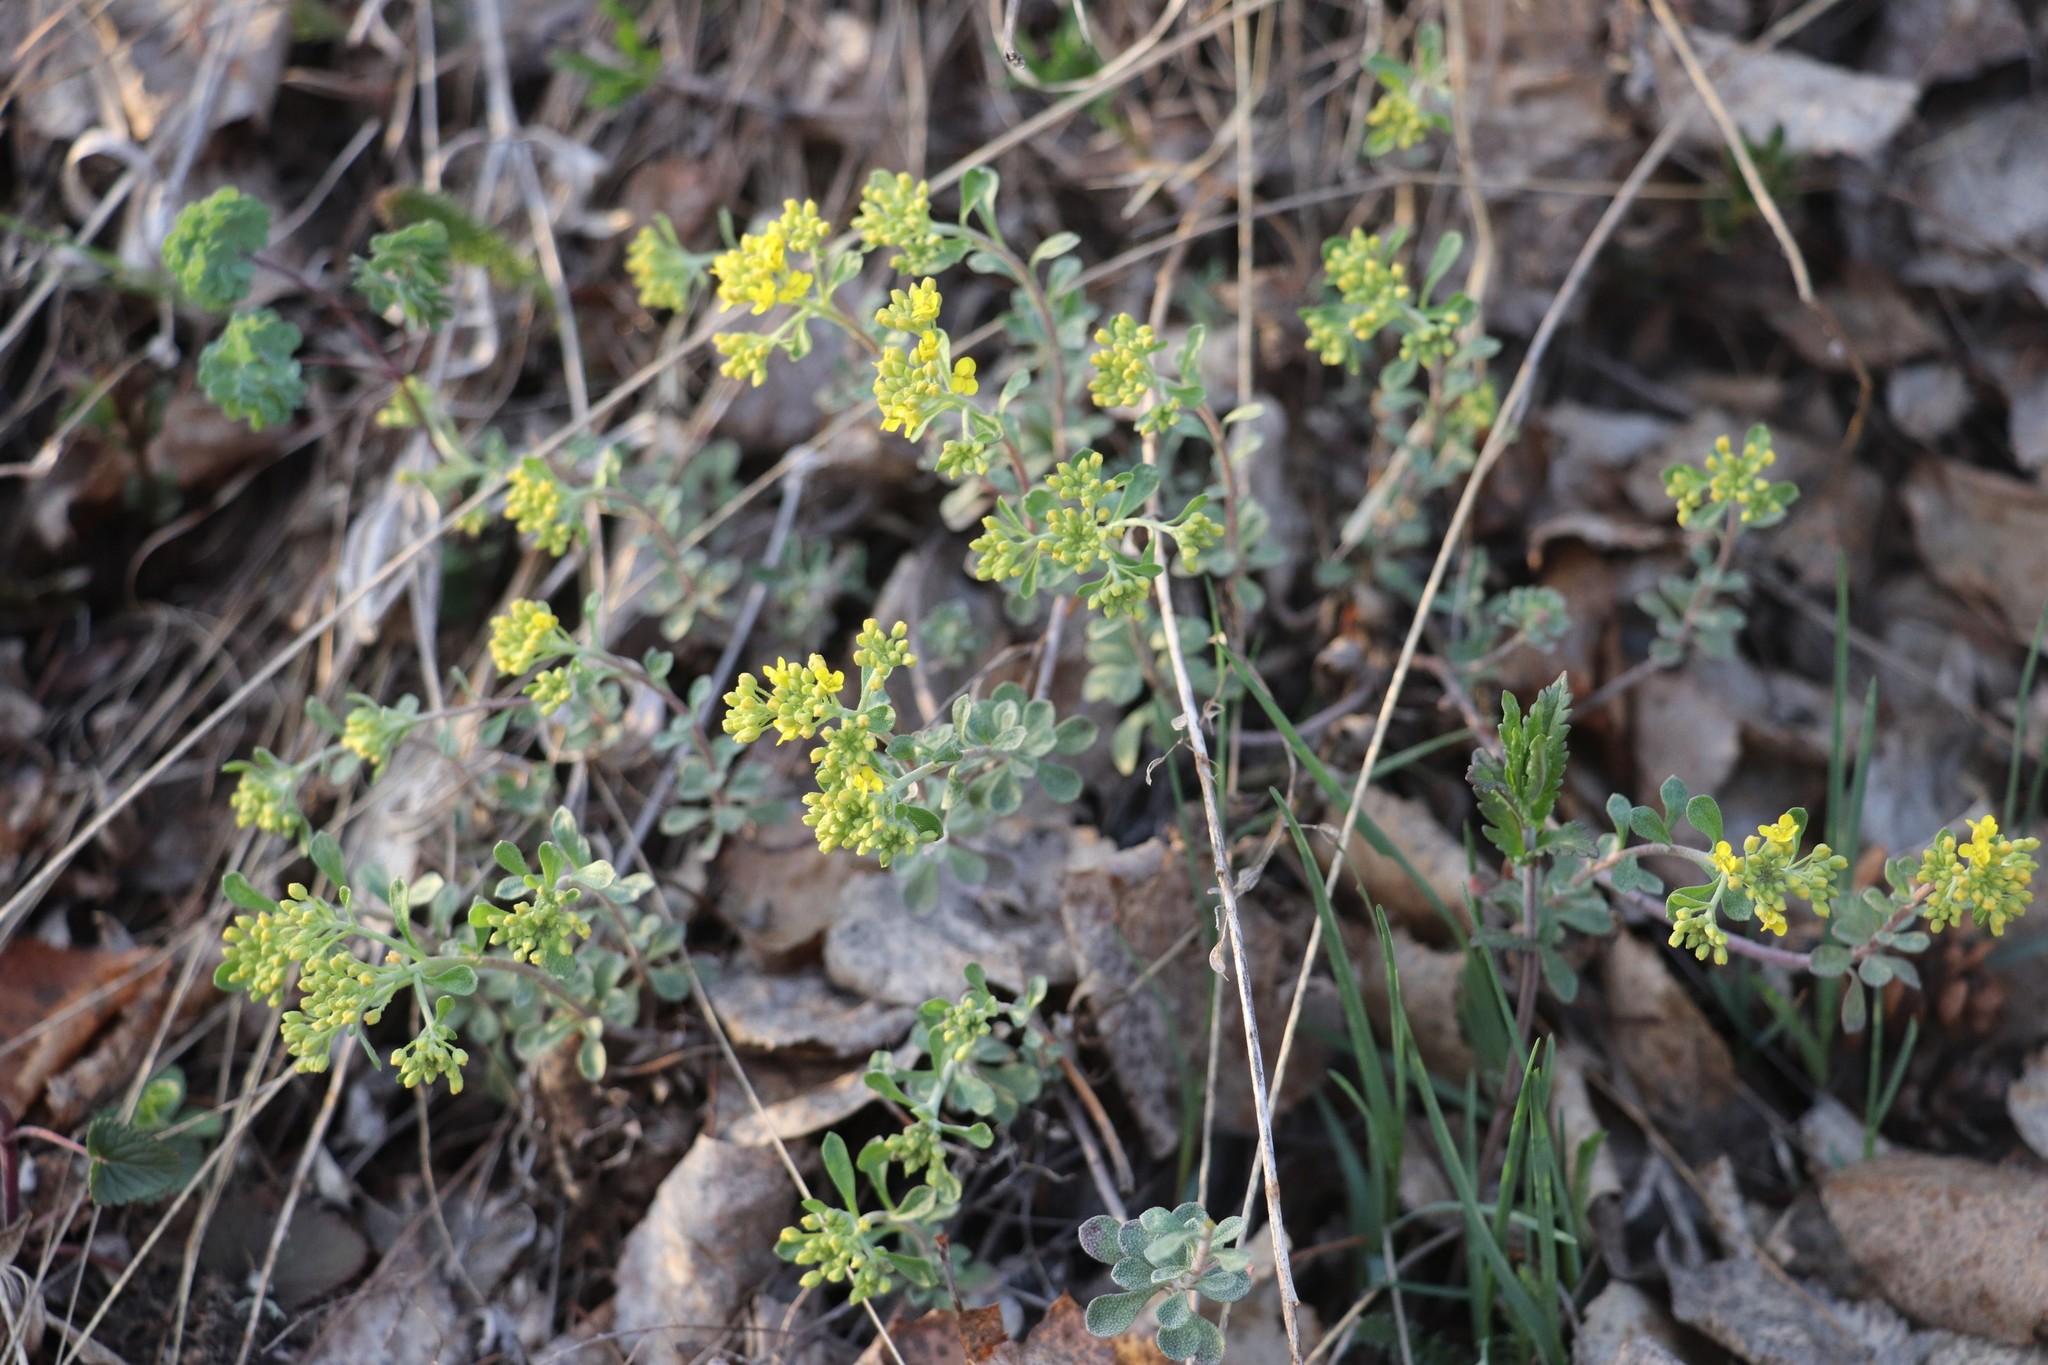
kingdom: Plantae
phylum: Tracheophyta
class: Magnoliopsida
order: Brassicales
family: Brassicaceae
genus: Odontarrhena
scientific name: Odontarrhena obovata
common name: American alyssum
